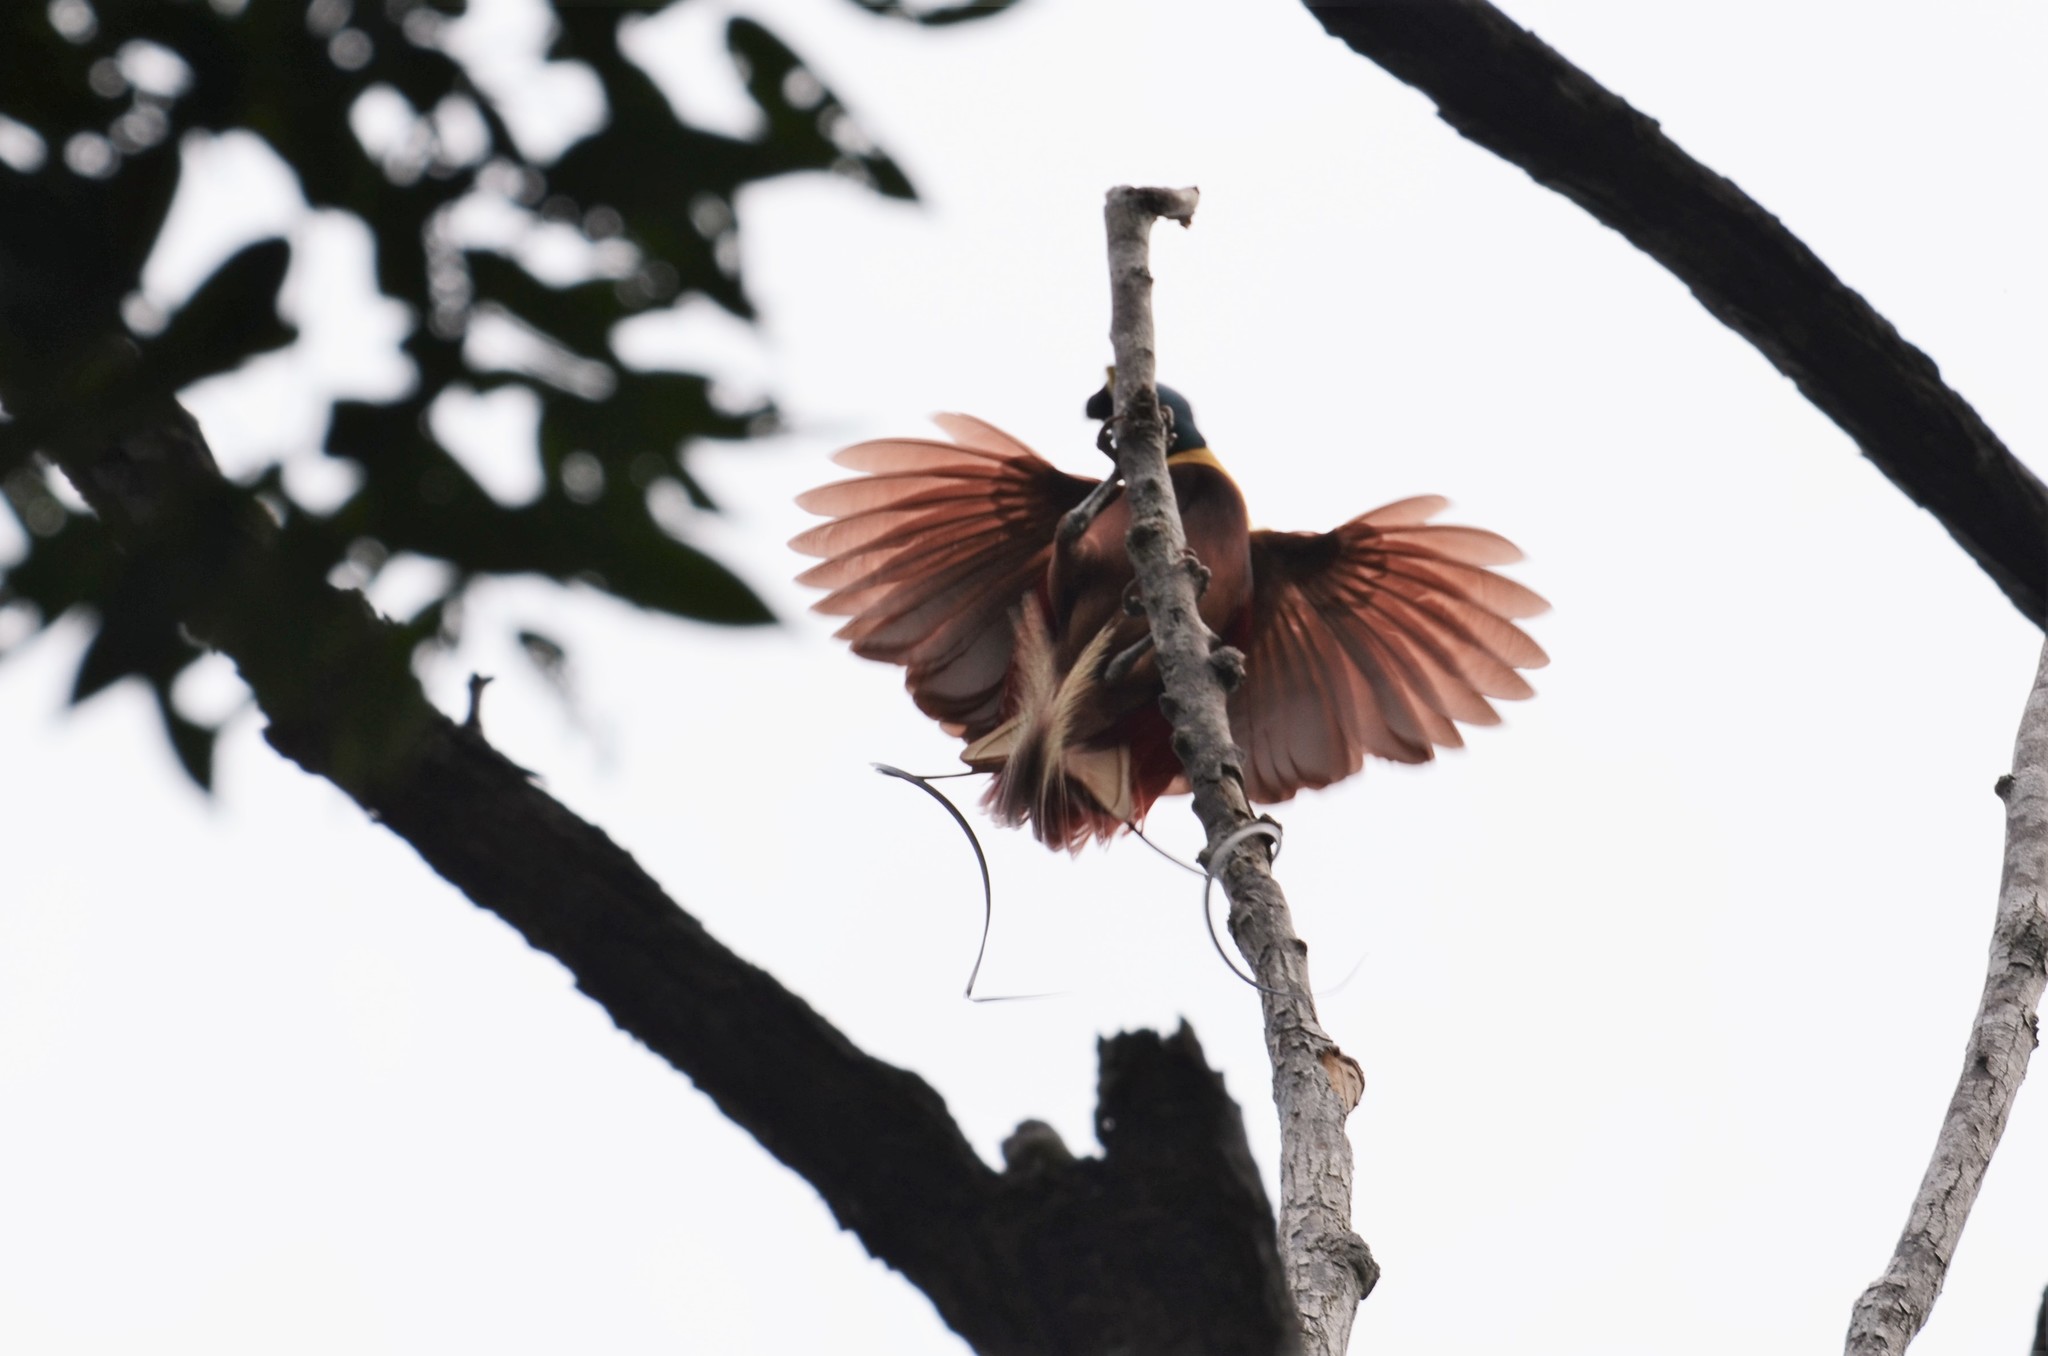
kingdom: Animalia
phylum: Chordata
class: Aves
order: Passeriformes
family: Paradisaeidae
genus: Paradisaea
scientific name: Paradisaea rubra
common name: Red bird-of-paradise
